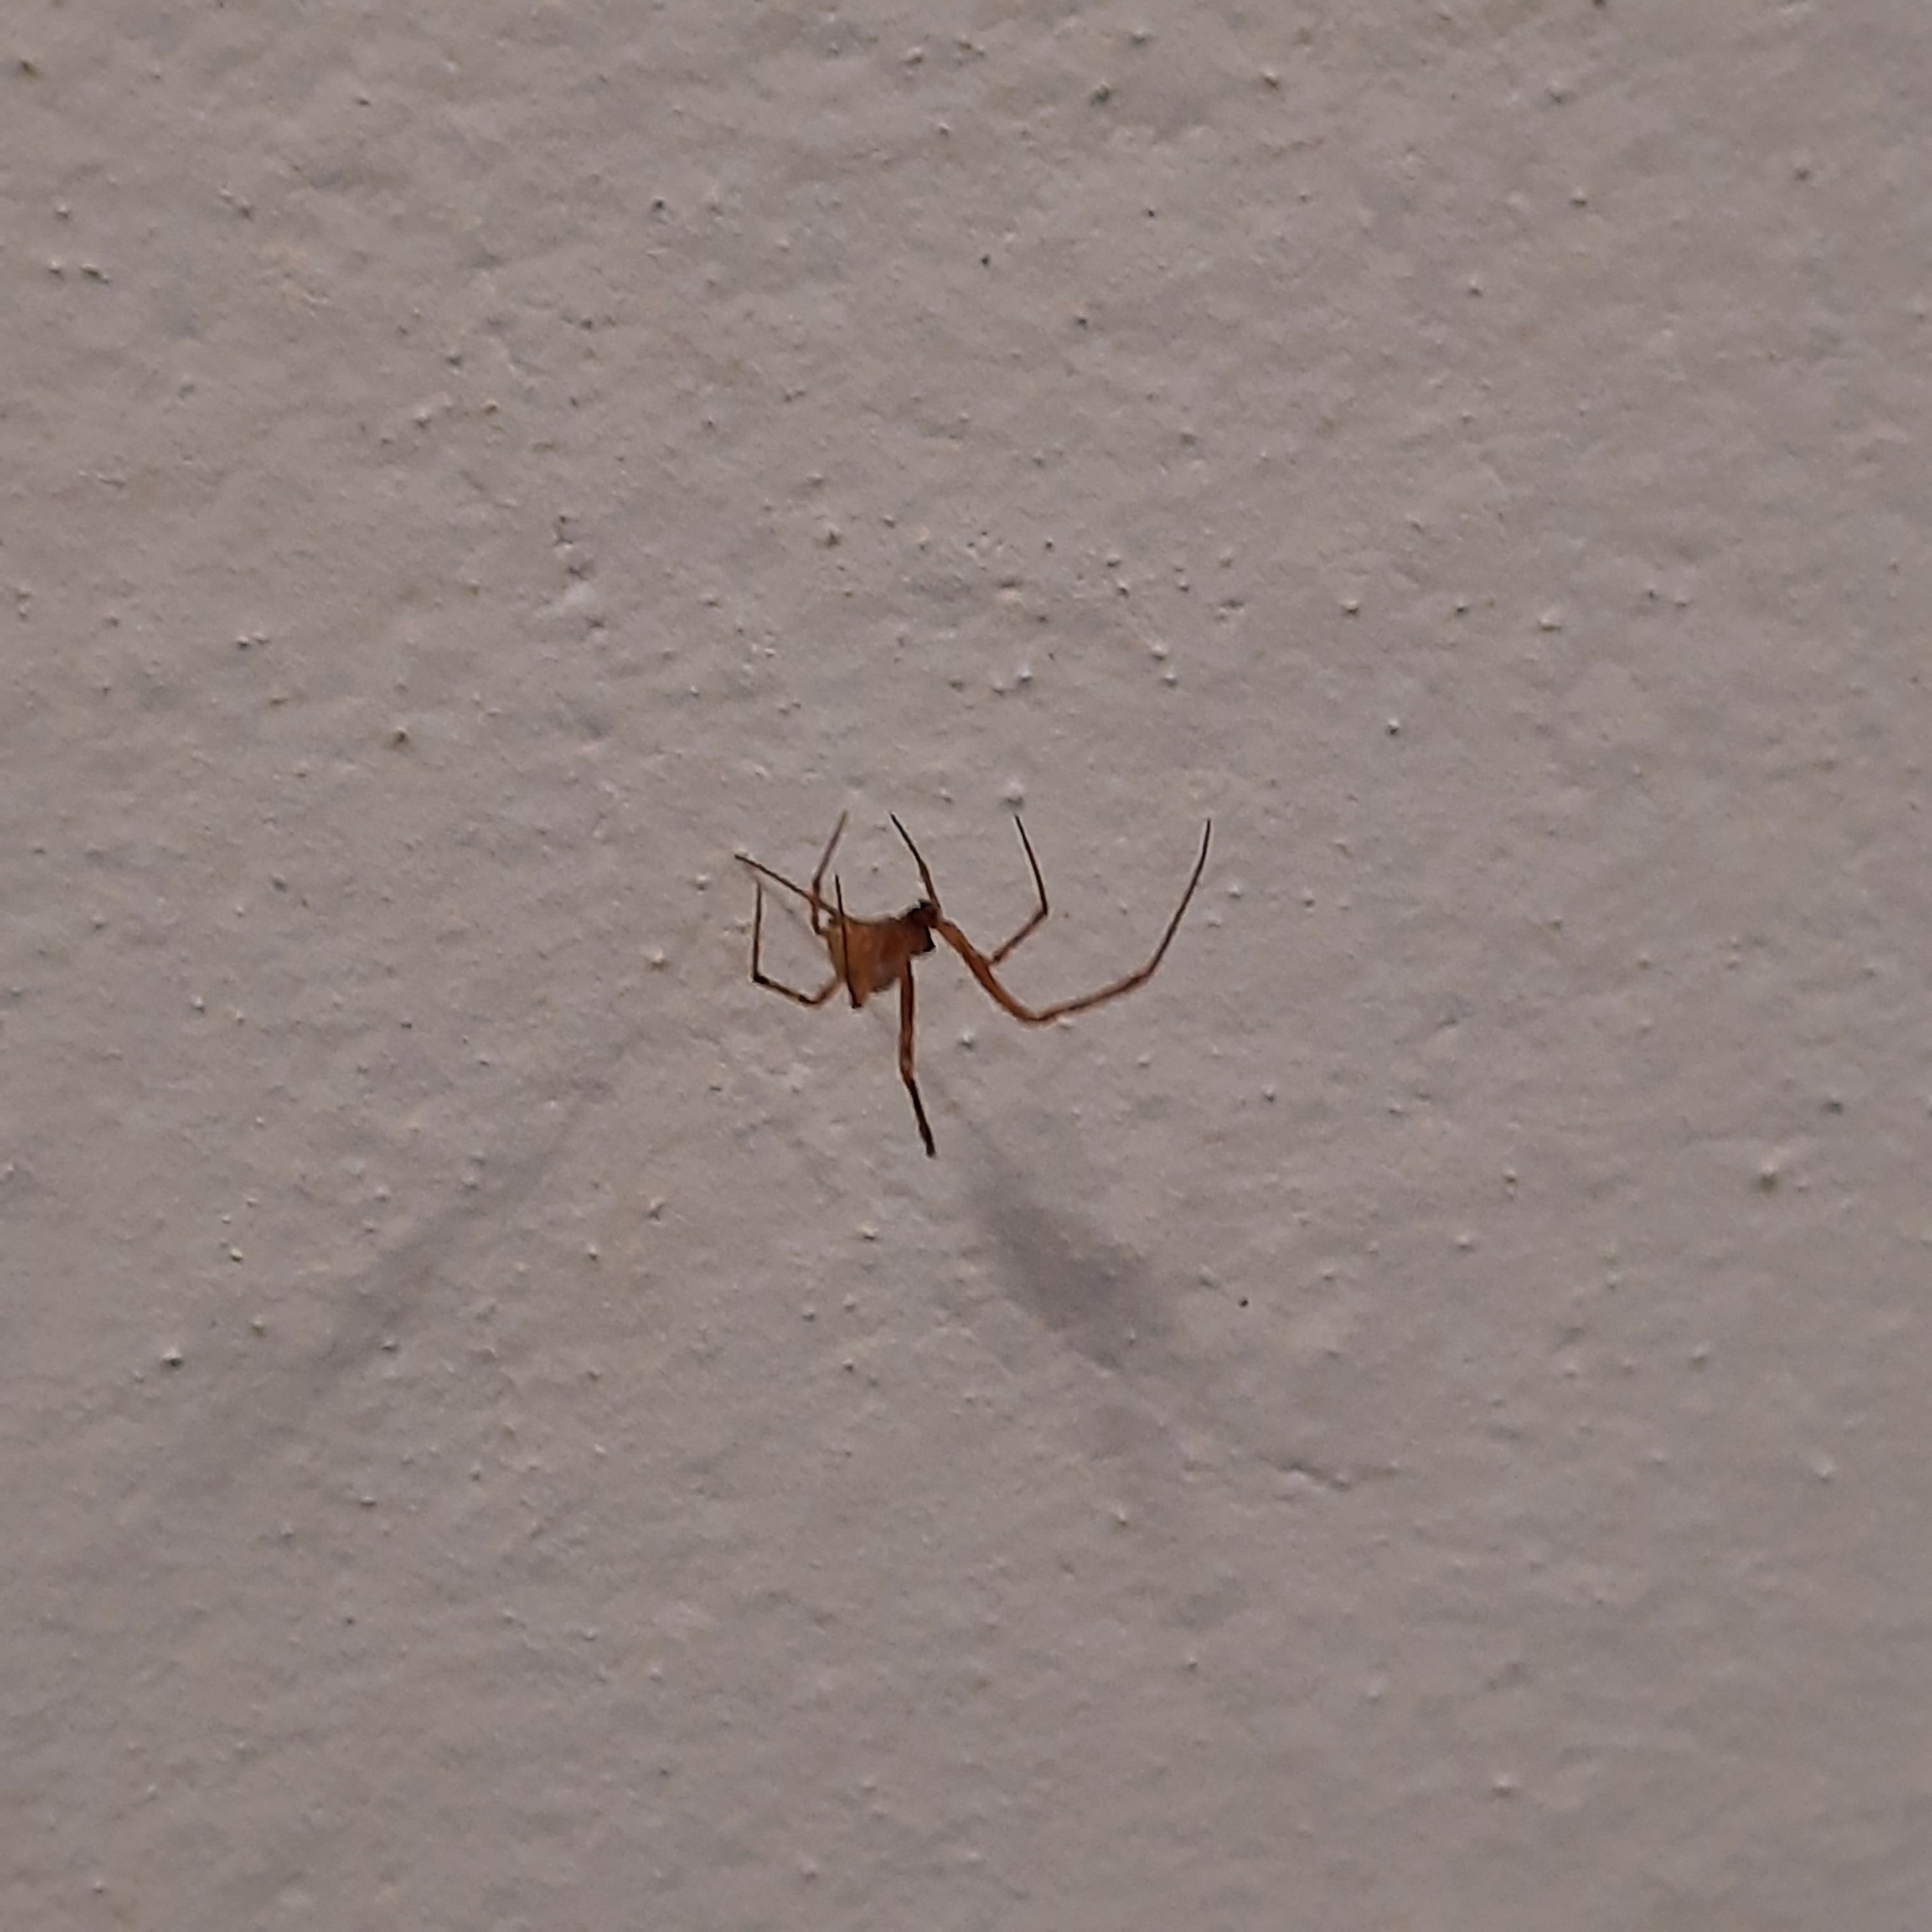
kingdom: Animalia
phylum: Arthropoda
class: Arachnida
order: Araneae
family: Theridiidae
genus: Parasteatoda
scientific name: Parasteatoda
